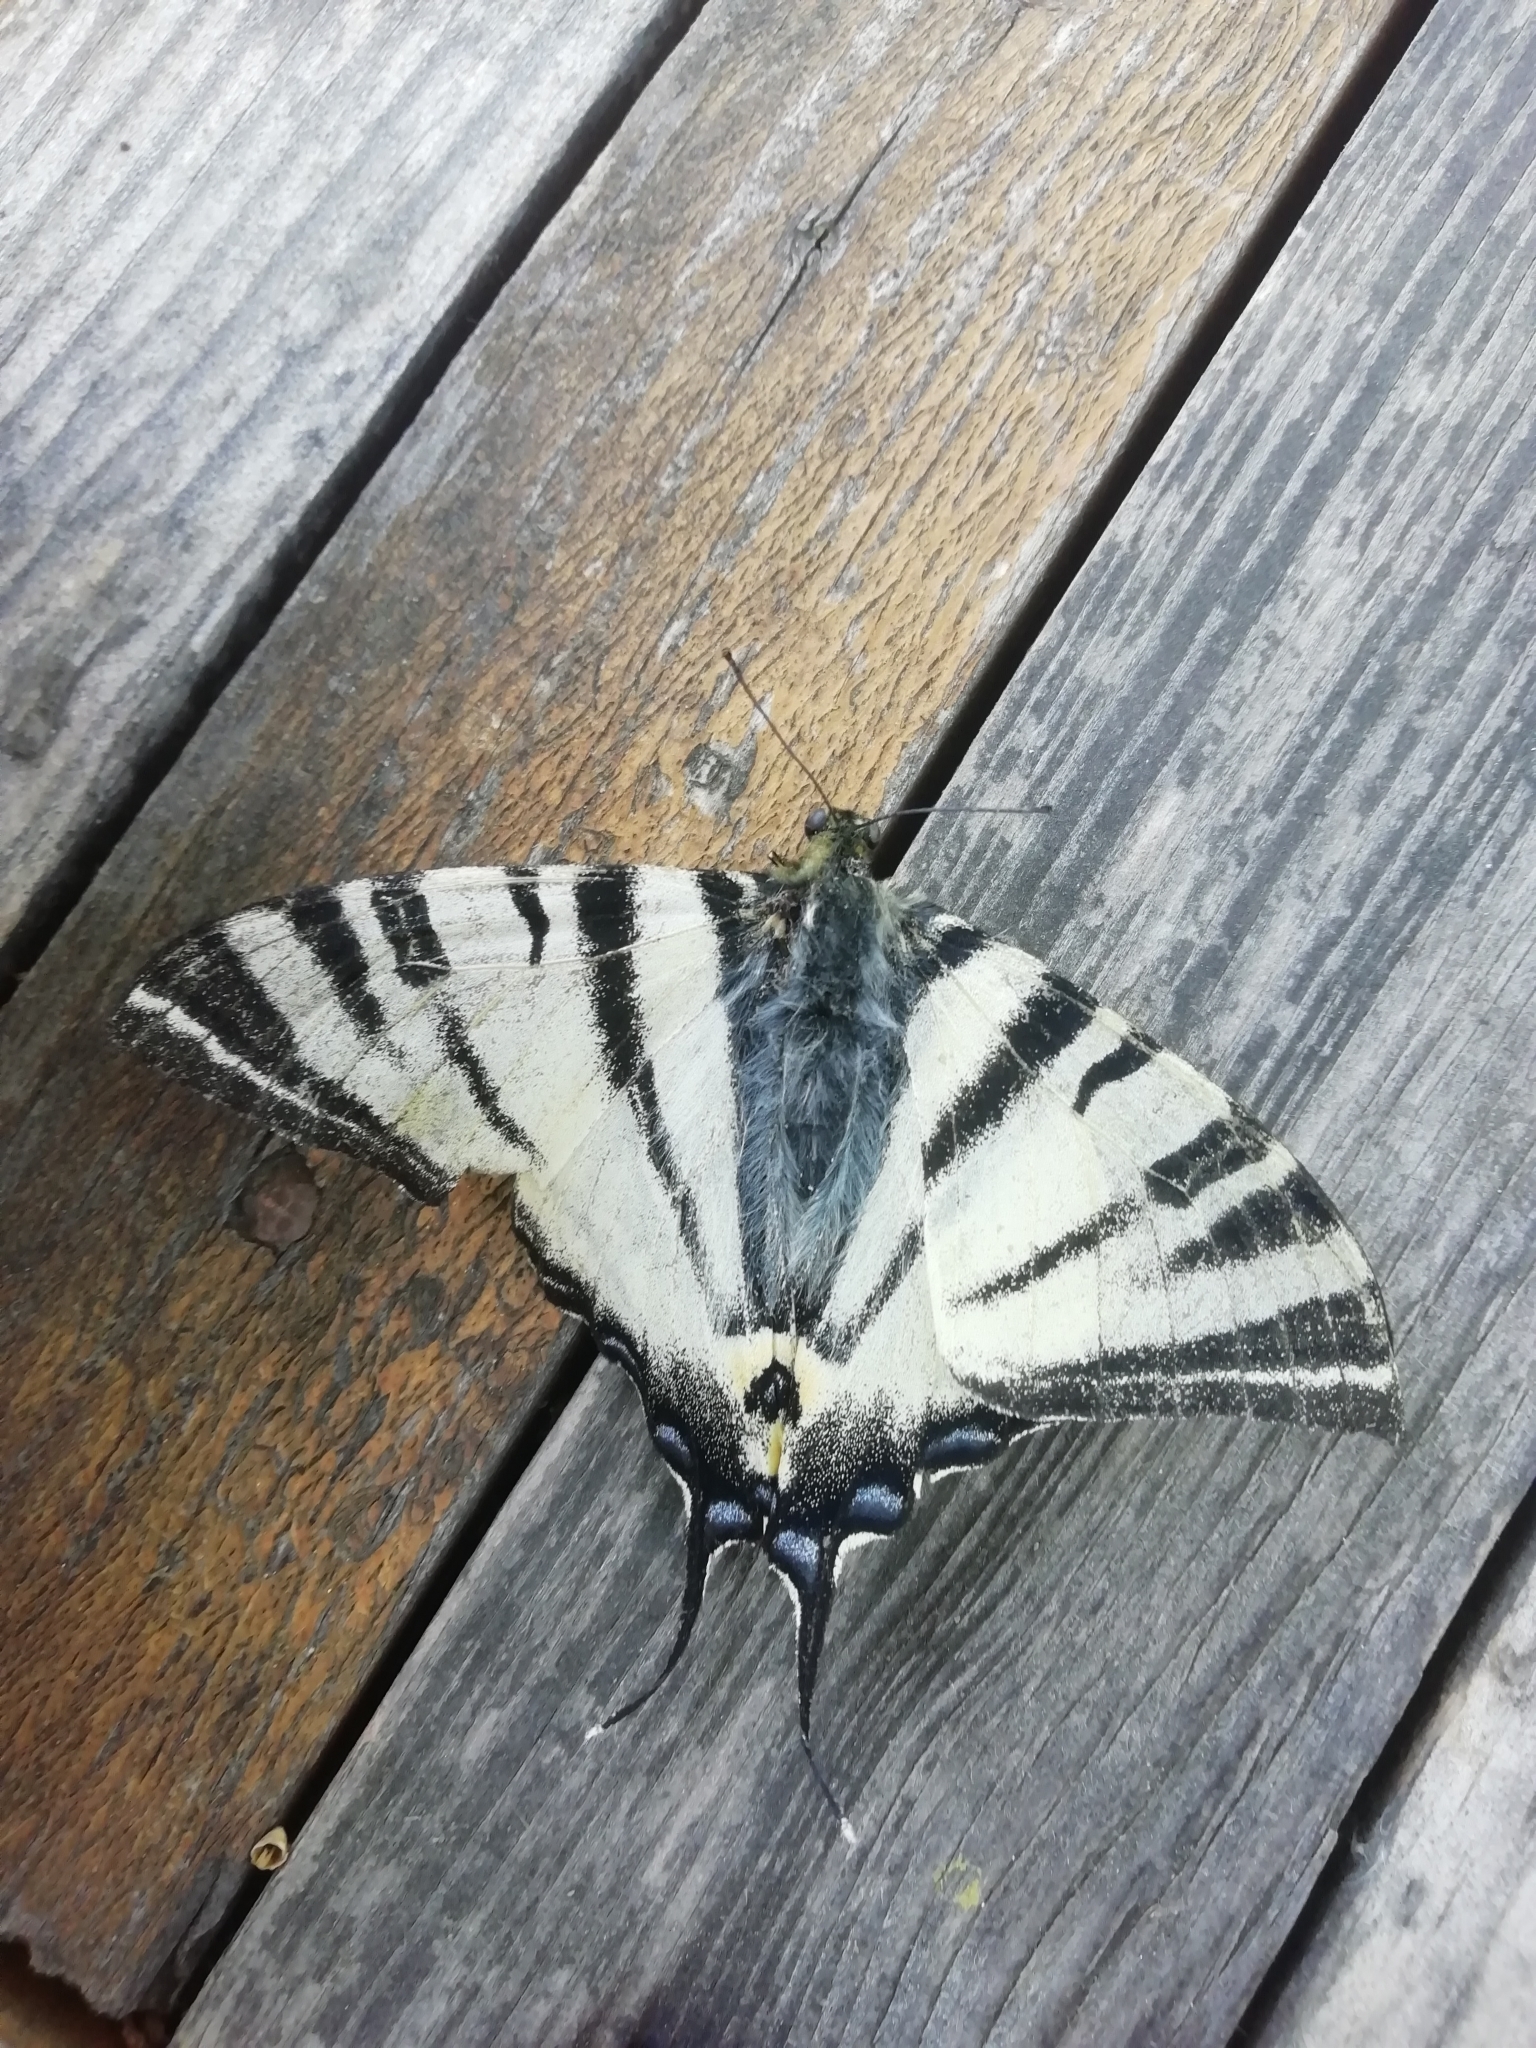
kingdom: Animalia
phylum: Arthropoda
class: Insecta
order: Lepidoptera
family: Papilionidae
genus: Iphiclides
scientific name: Iphiclides podalirius
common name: Scarce swallowtail
